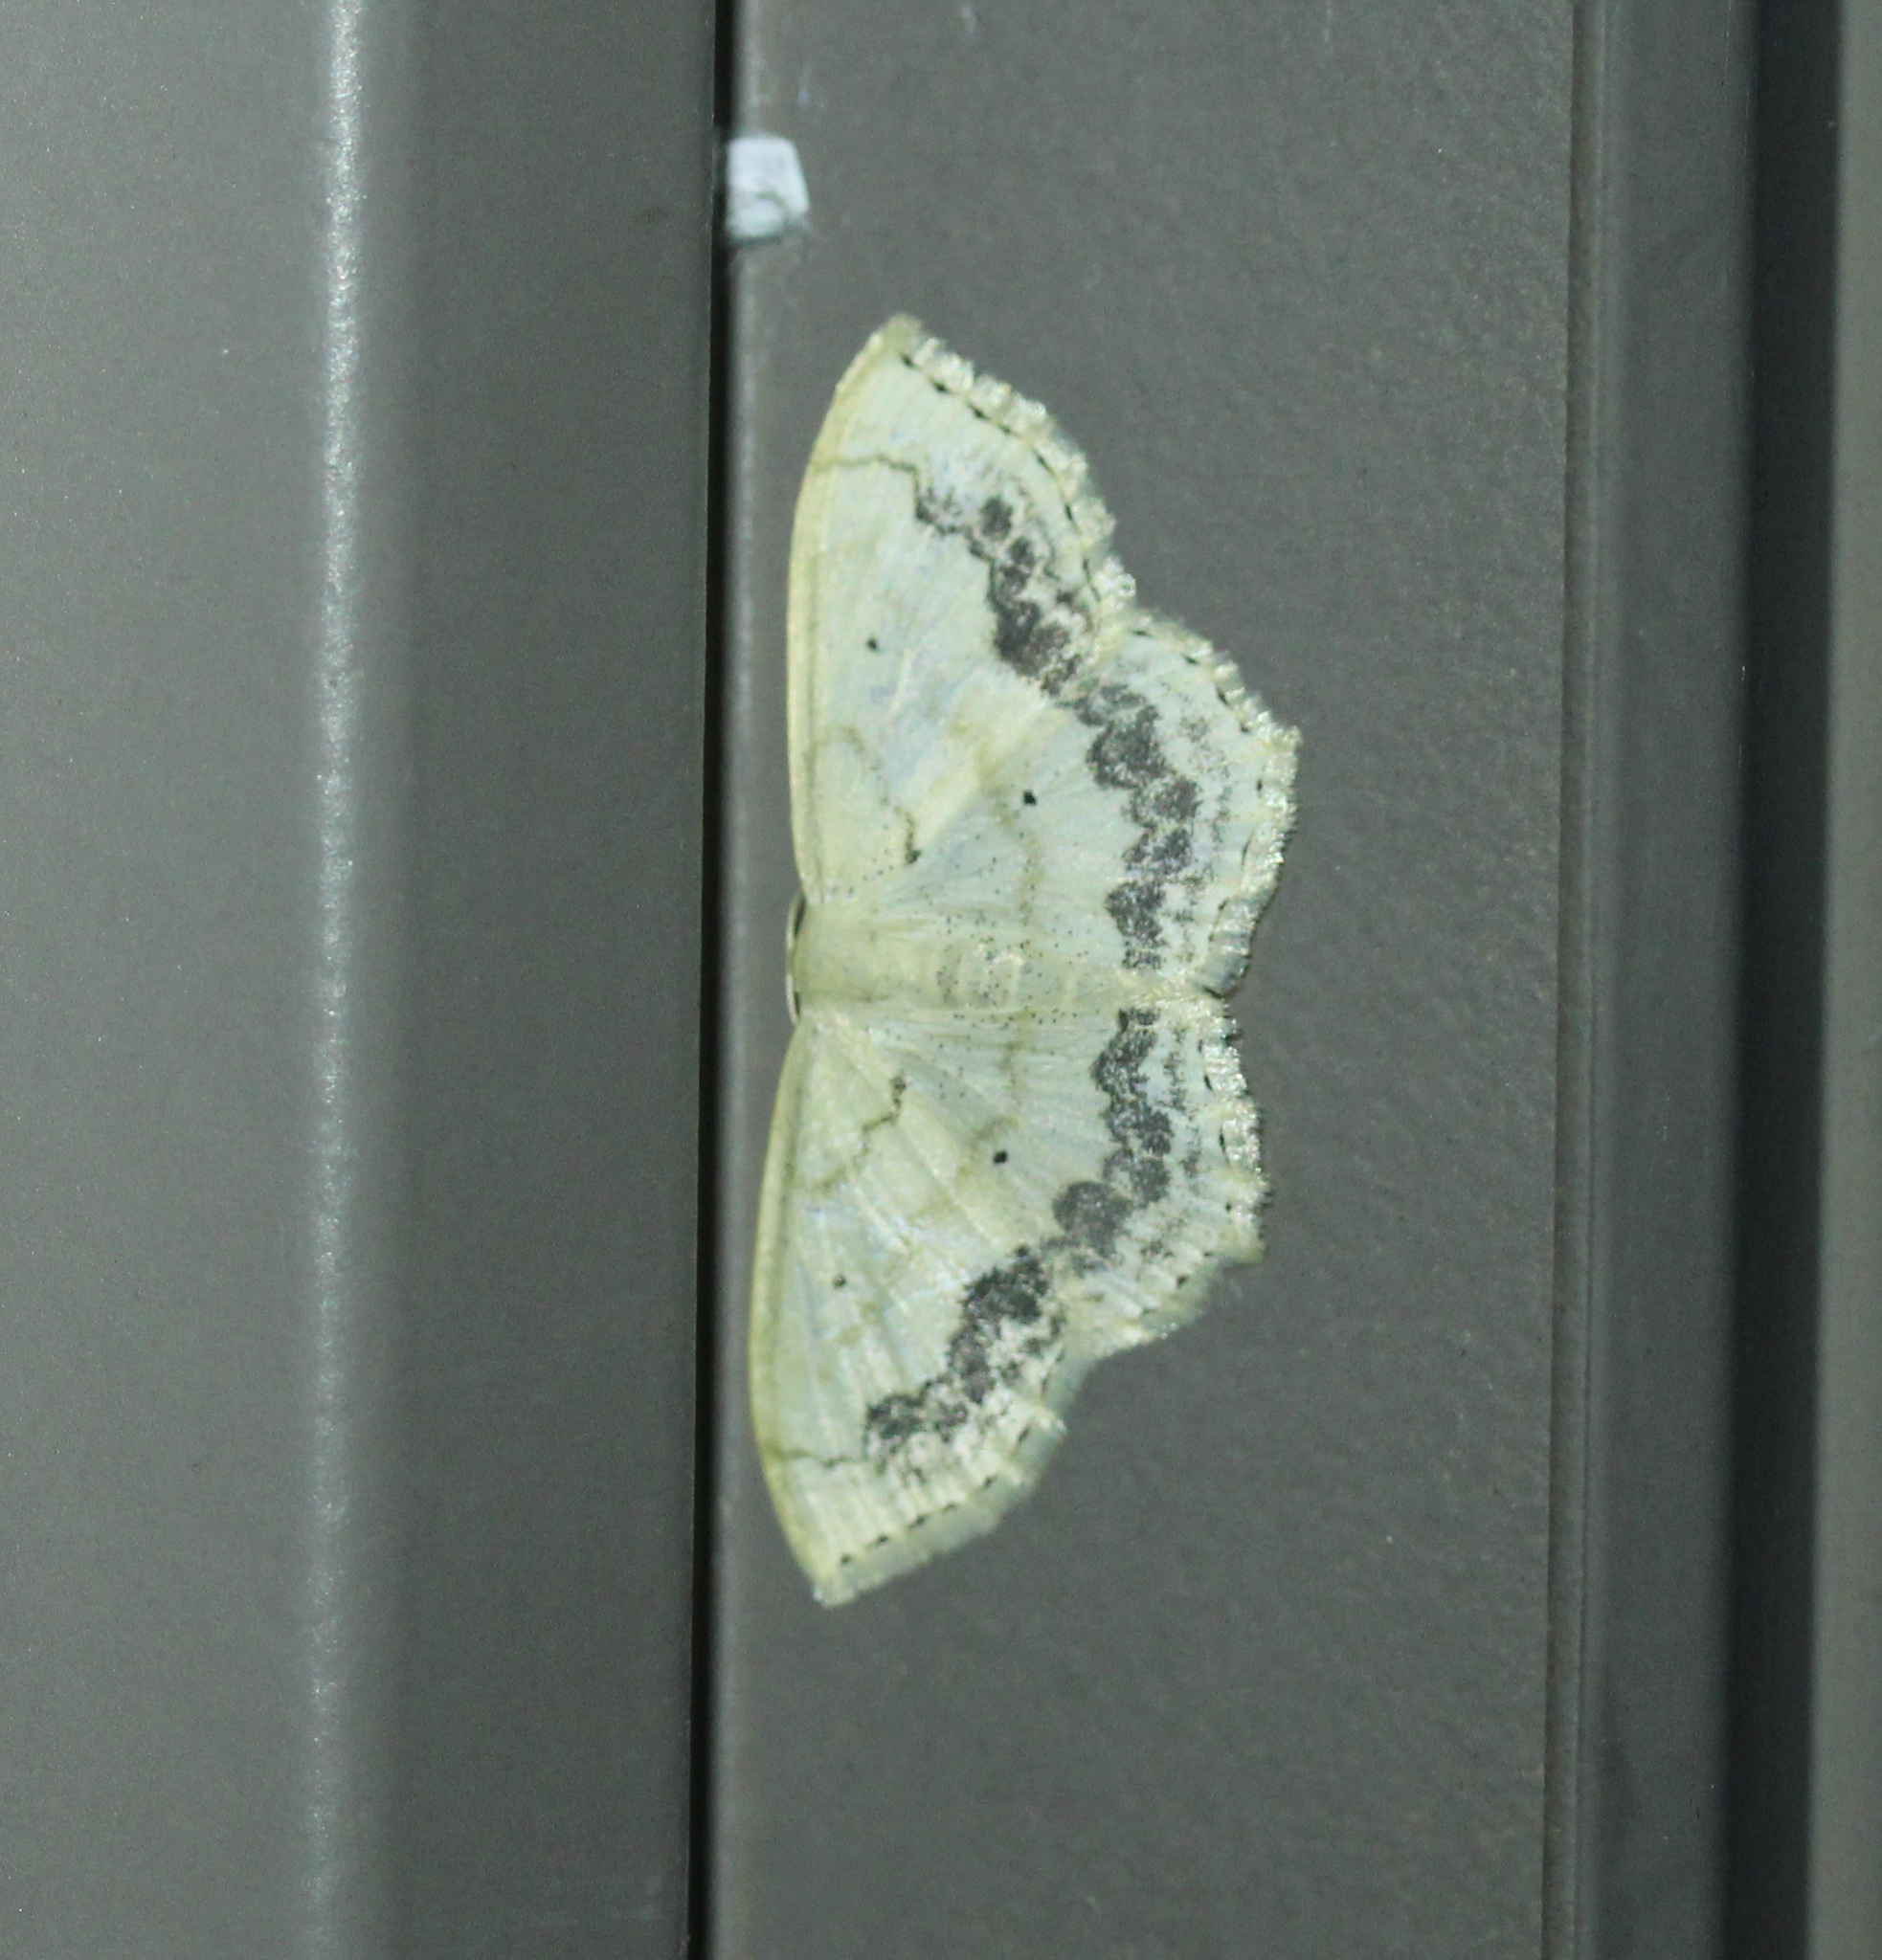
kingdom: Animalia
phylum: Arthropoda
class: Insecta
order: Lepidoptera
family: Geometridae
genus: Scopula
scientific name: Scopula limboundata
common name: Large lace border
